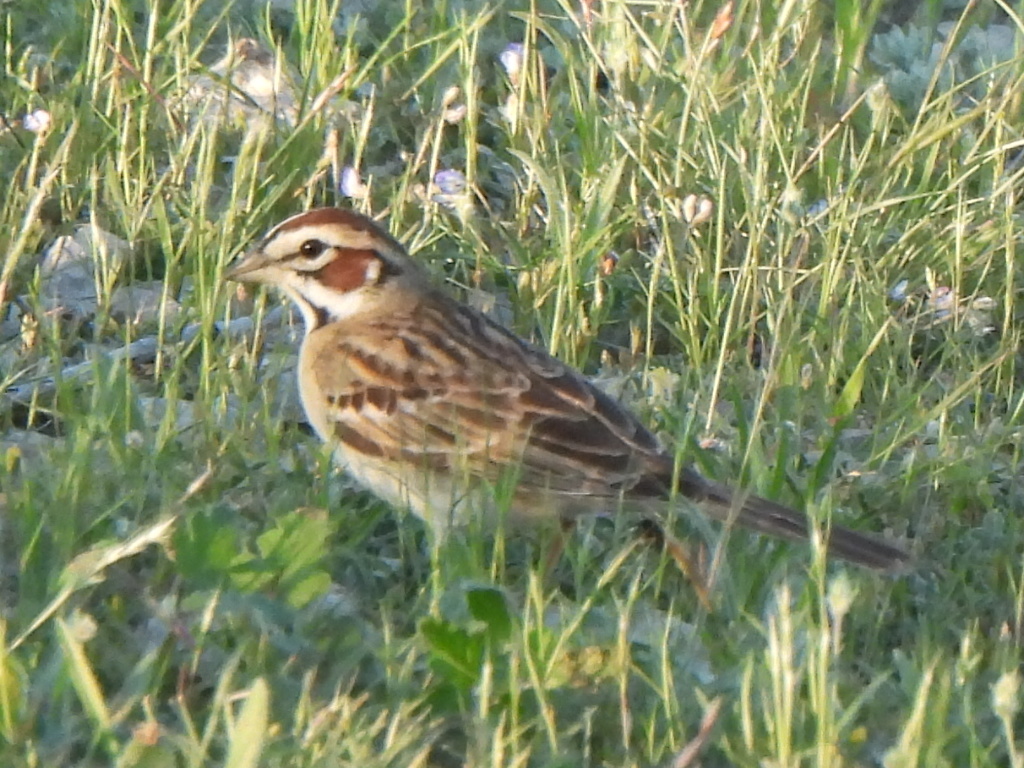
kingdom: Animalia
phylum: Chordata
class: Aves
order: Passeriformes
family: Passerellidae
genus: Chondestes
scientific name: Chondestes grammacus
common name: Lark sparrow
